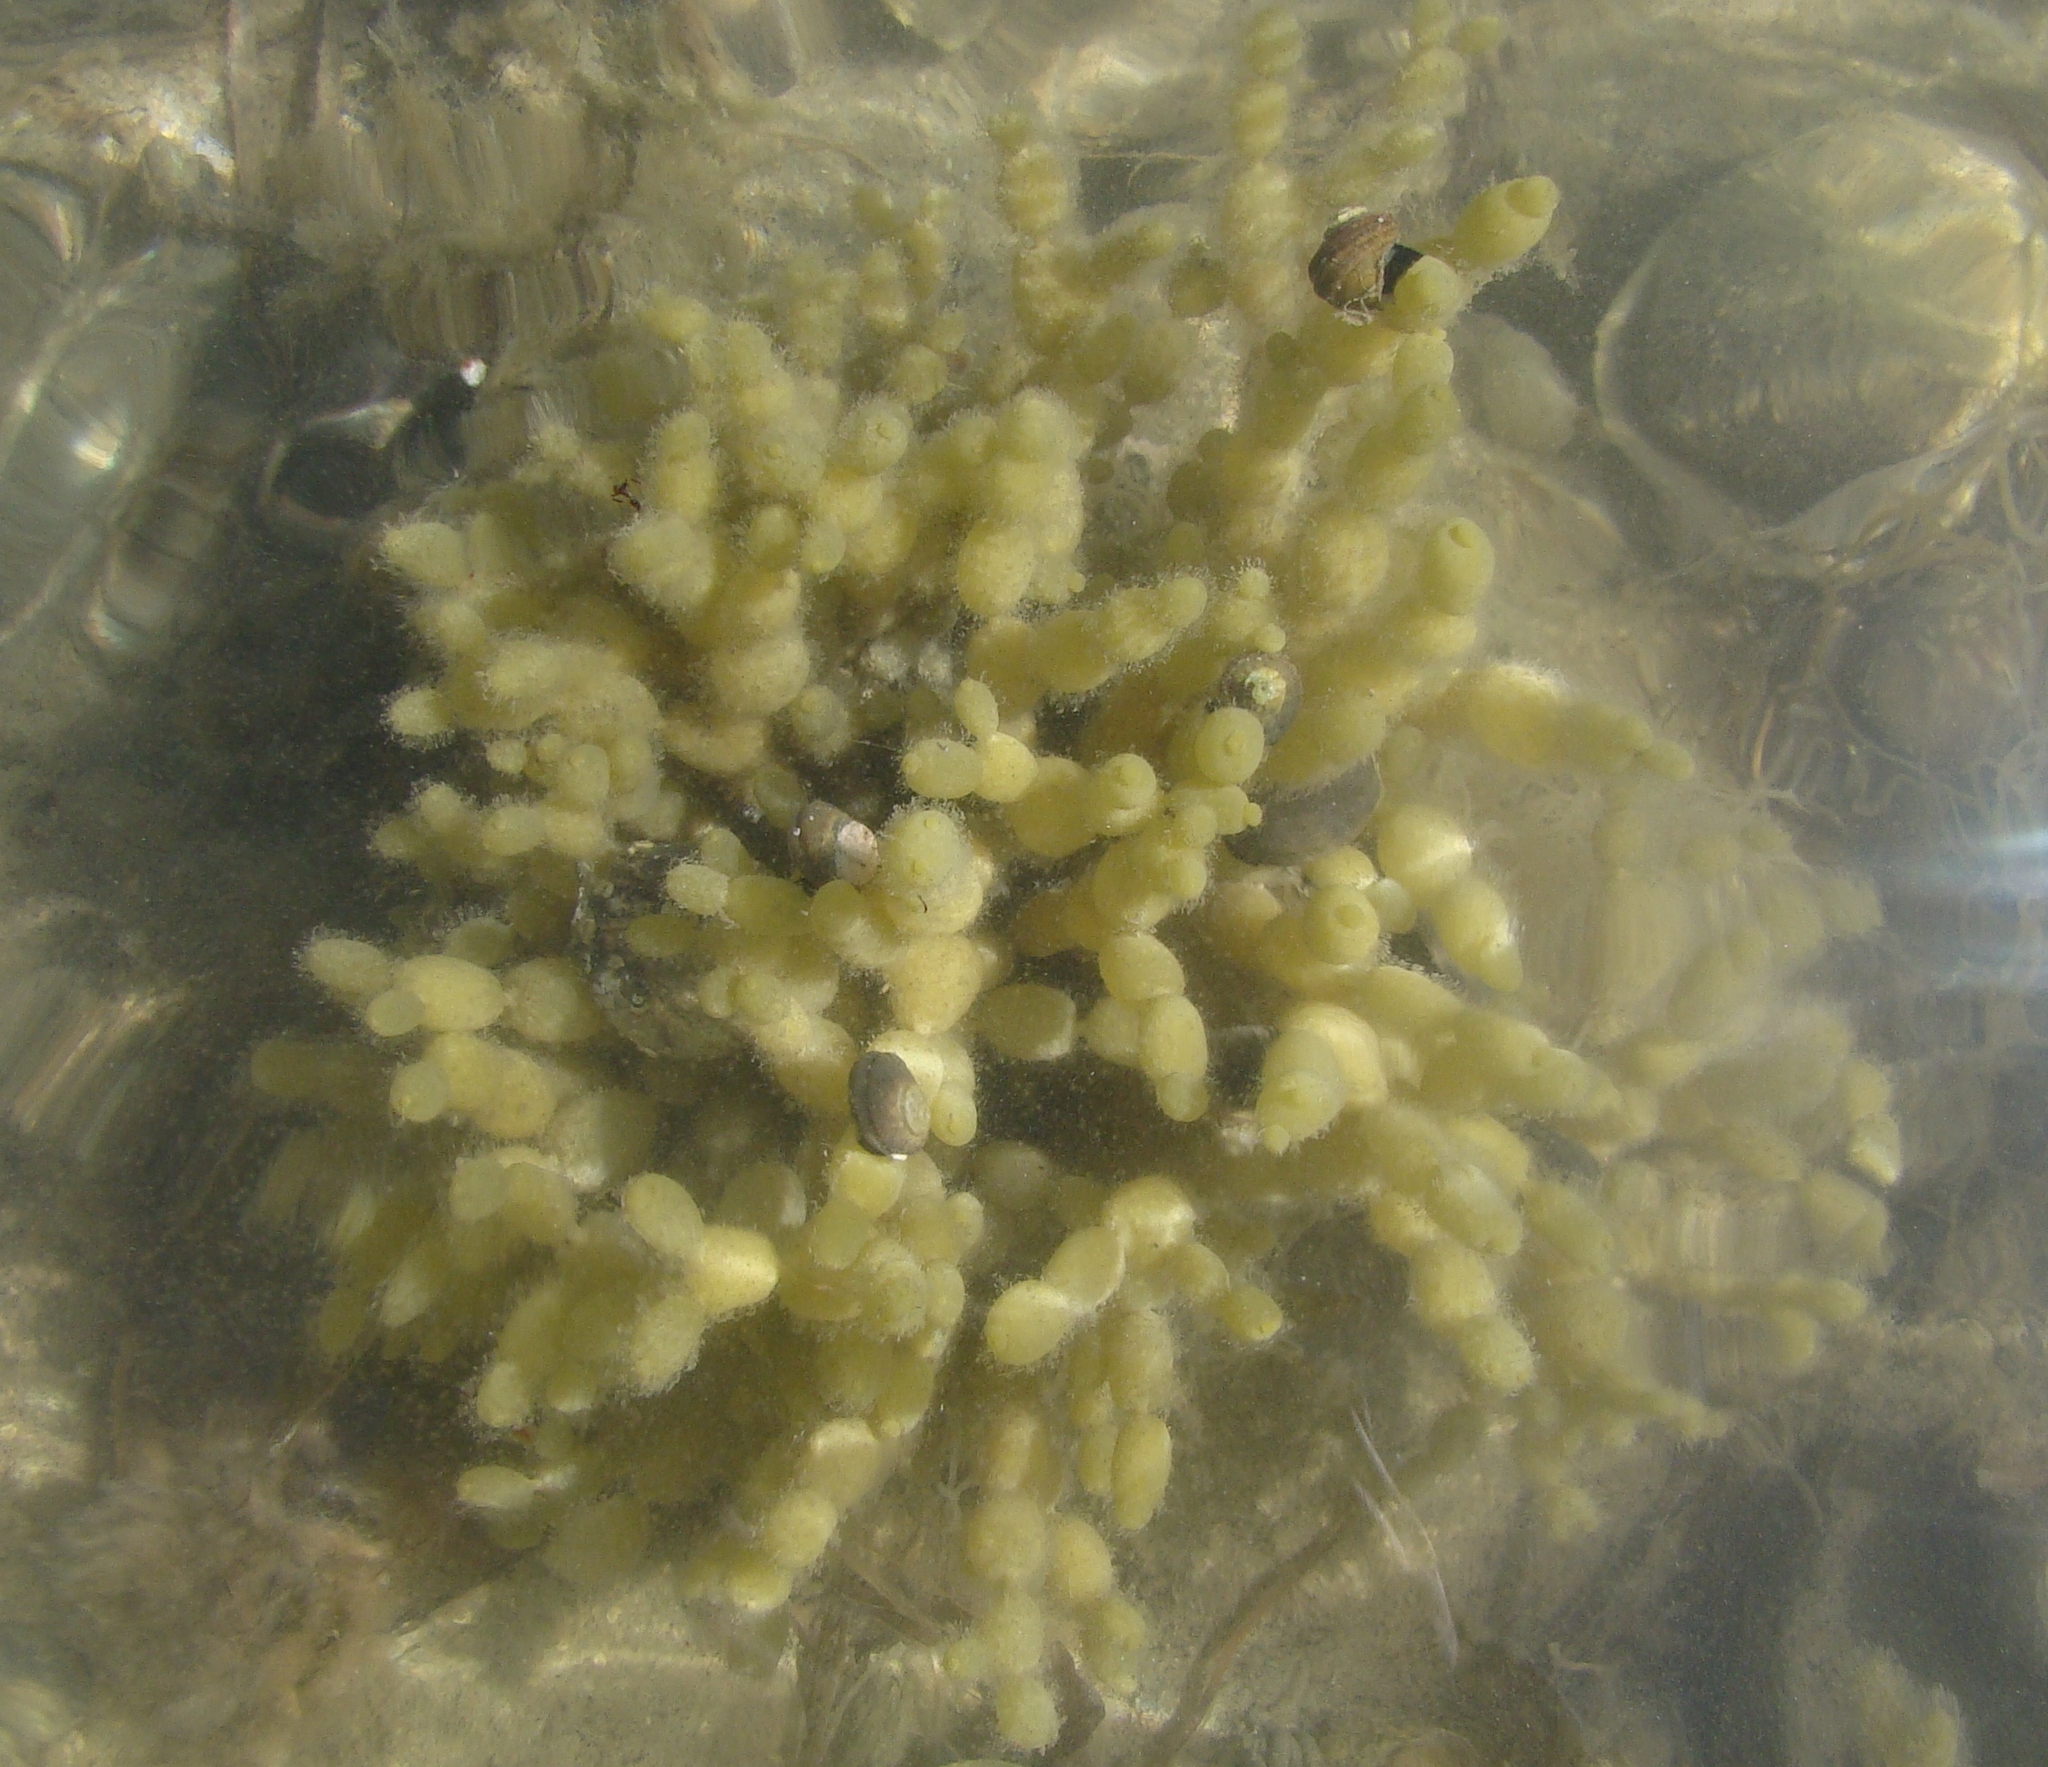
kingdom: Chromista
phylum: Ochrophyta
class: Phaeophyceae
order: Fucales
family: Hormosiraceae
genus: Hormosira
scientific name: Hormosira banksii
